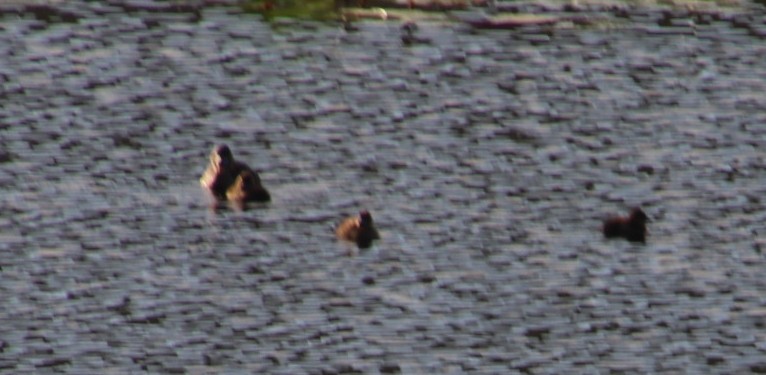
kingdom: Animalia
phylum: Chordata
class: Aves
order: Anseriformes
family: Anatidae
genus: Thalassornis
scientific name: Thalassornis leuconotus
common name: White-backed duck
